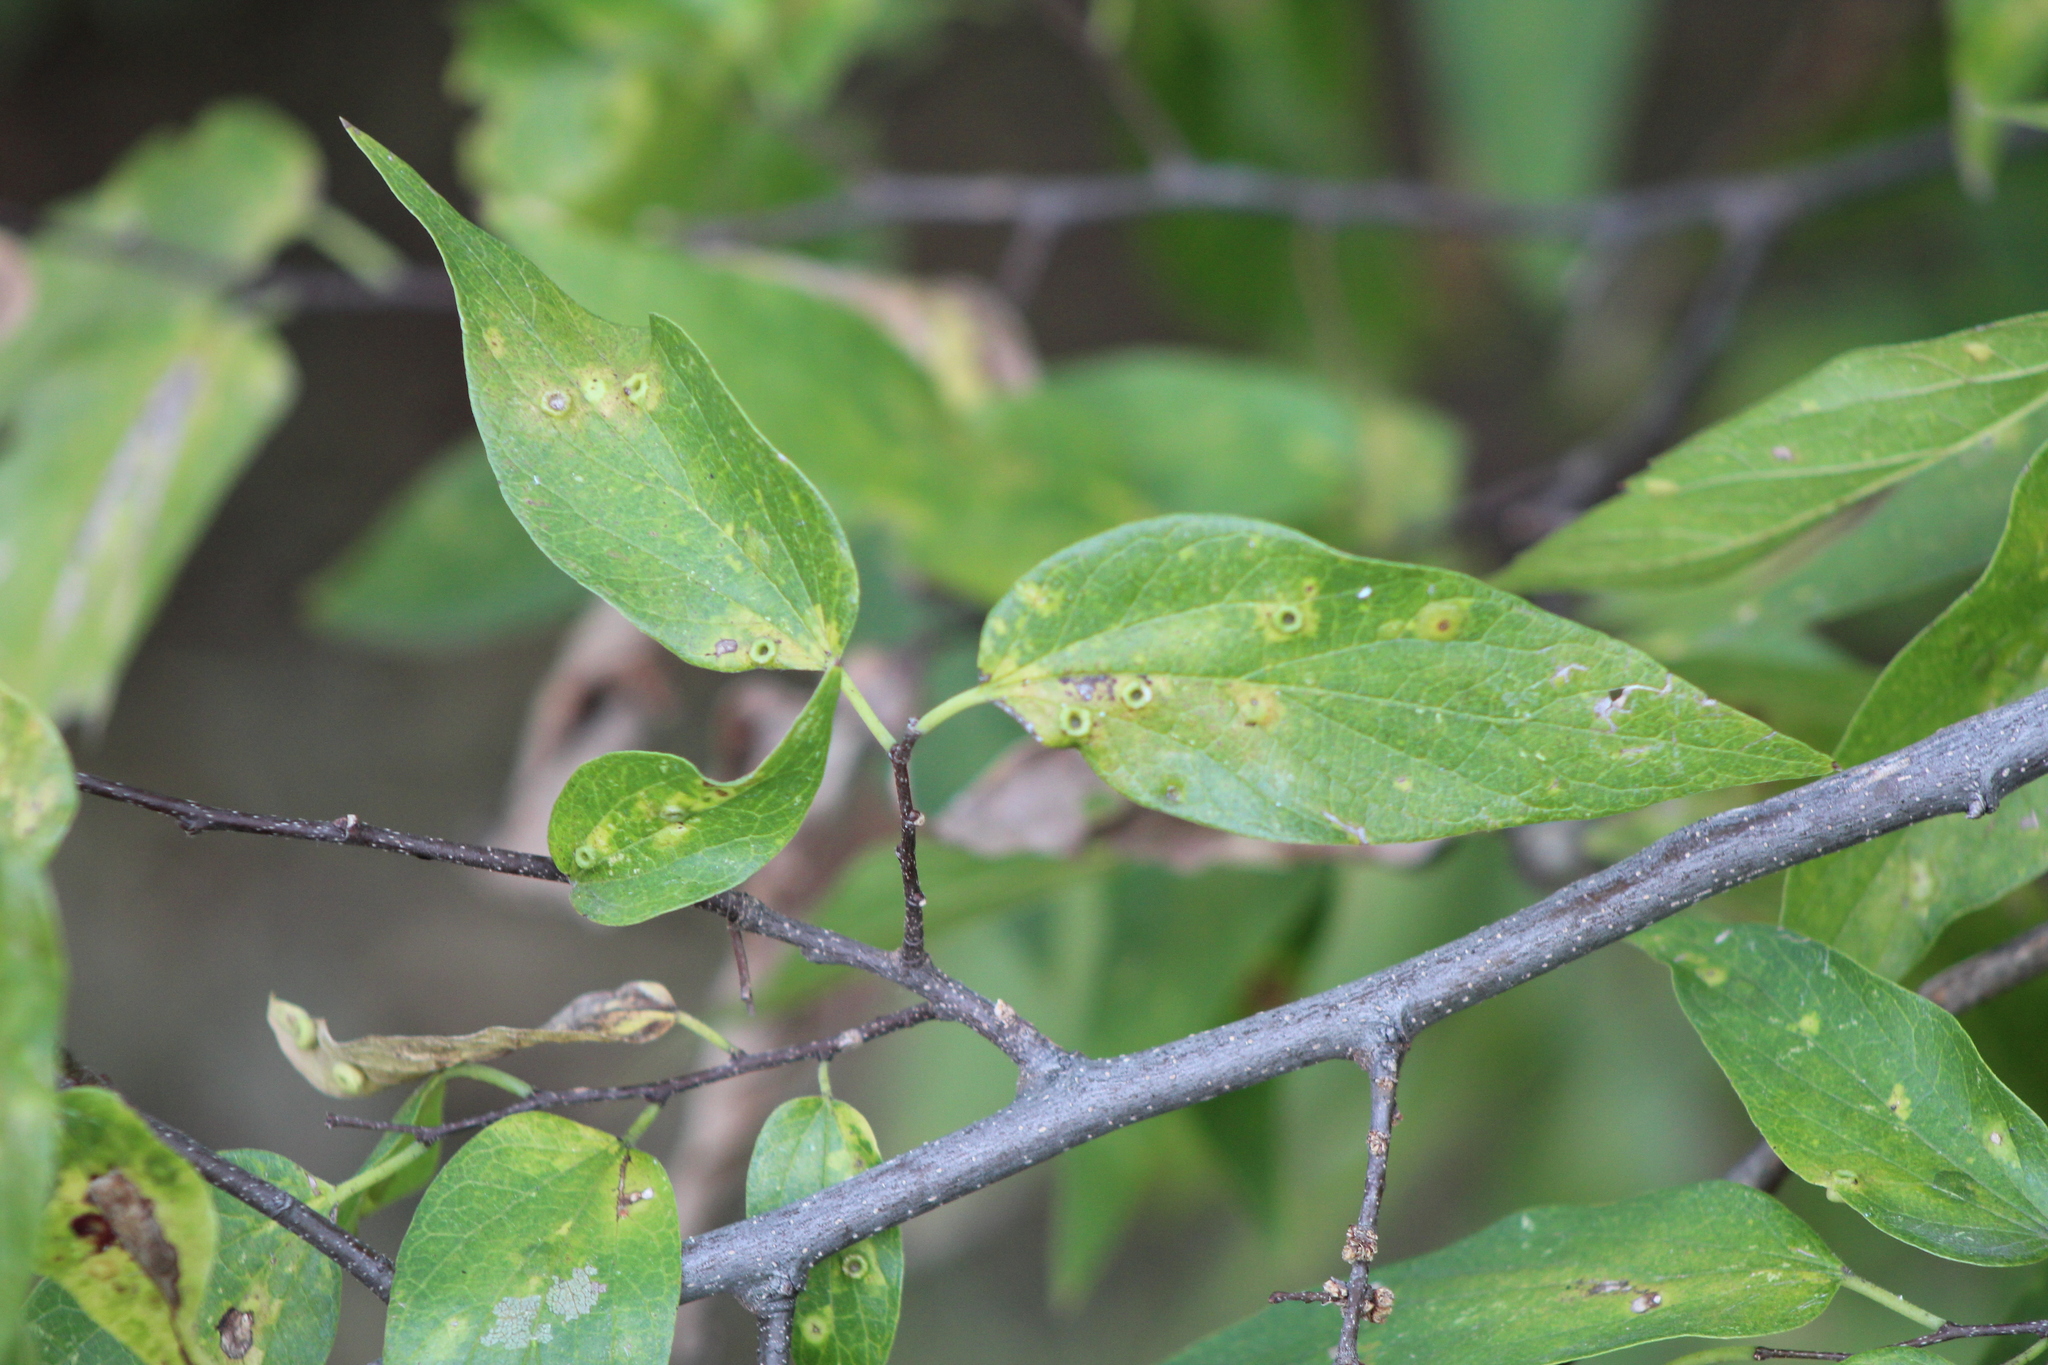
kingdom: Plantae
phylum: Tracheophyta
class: Magnoliopsida
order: Rosales
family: Cannabaceae
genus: Celtis
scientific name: Celtis laevigata
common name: Sugarberry
